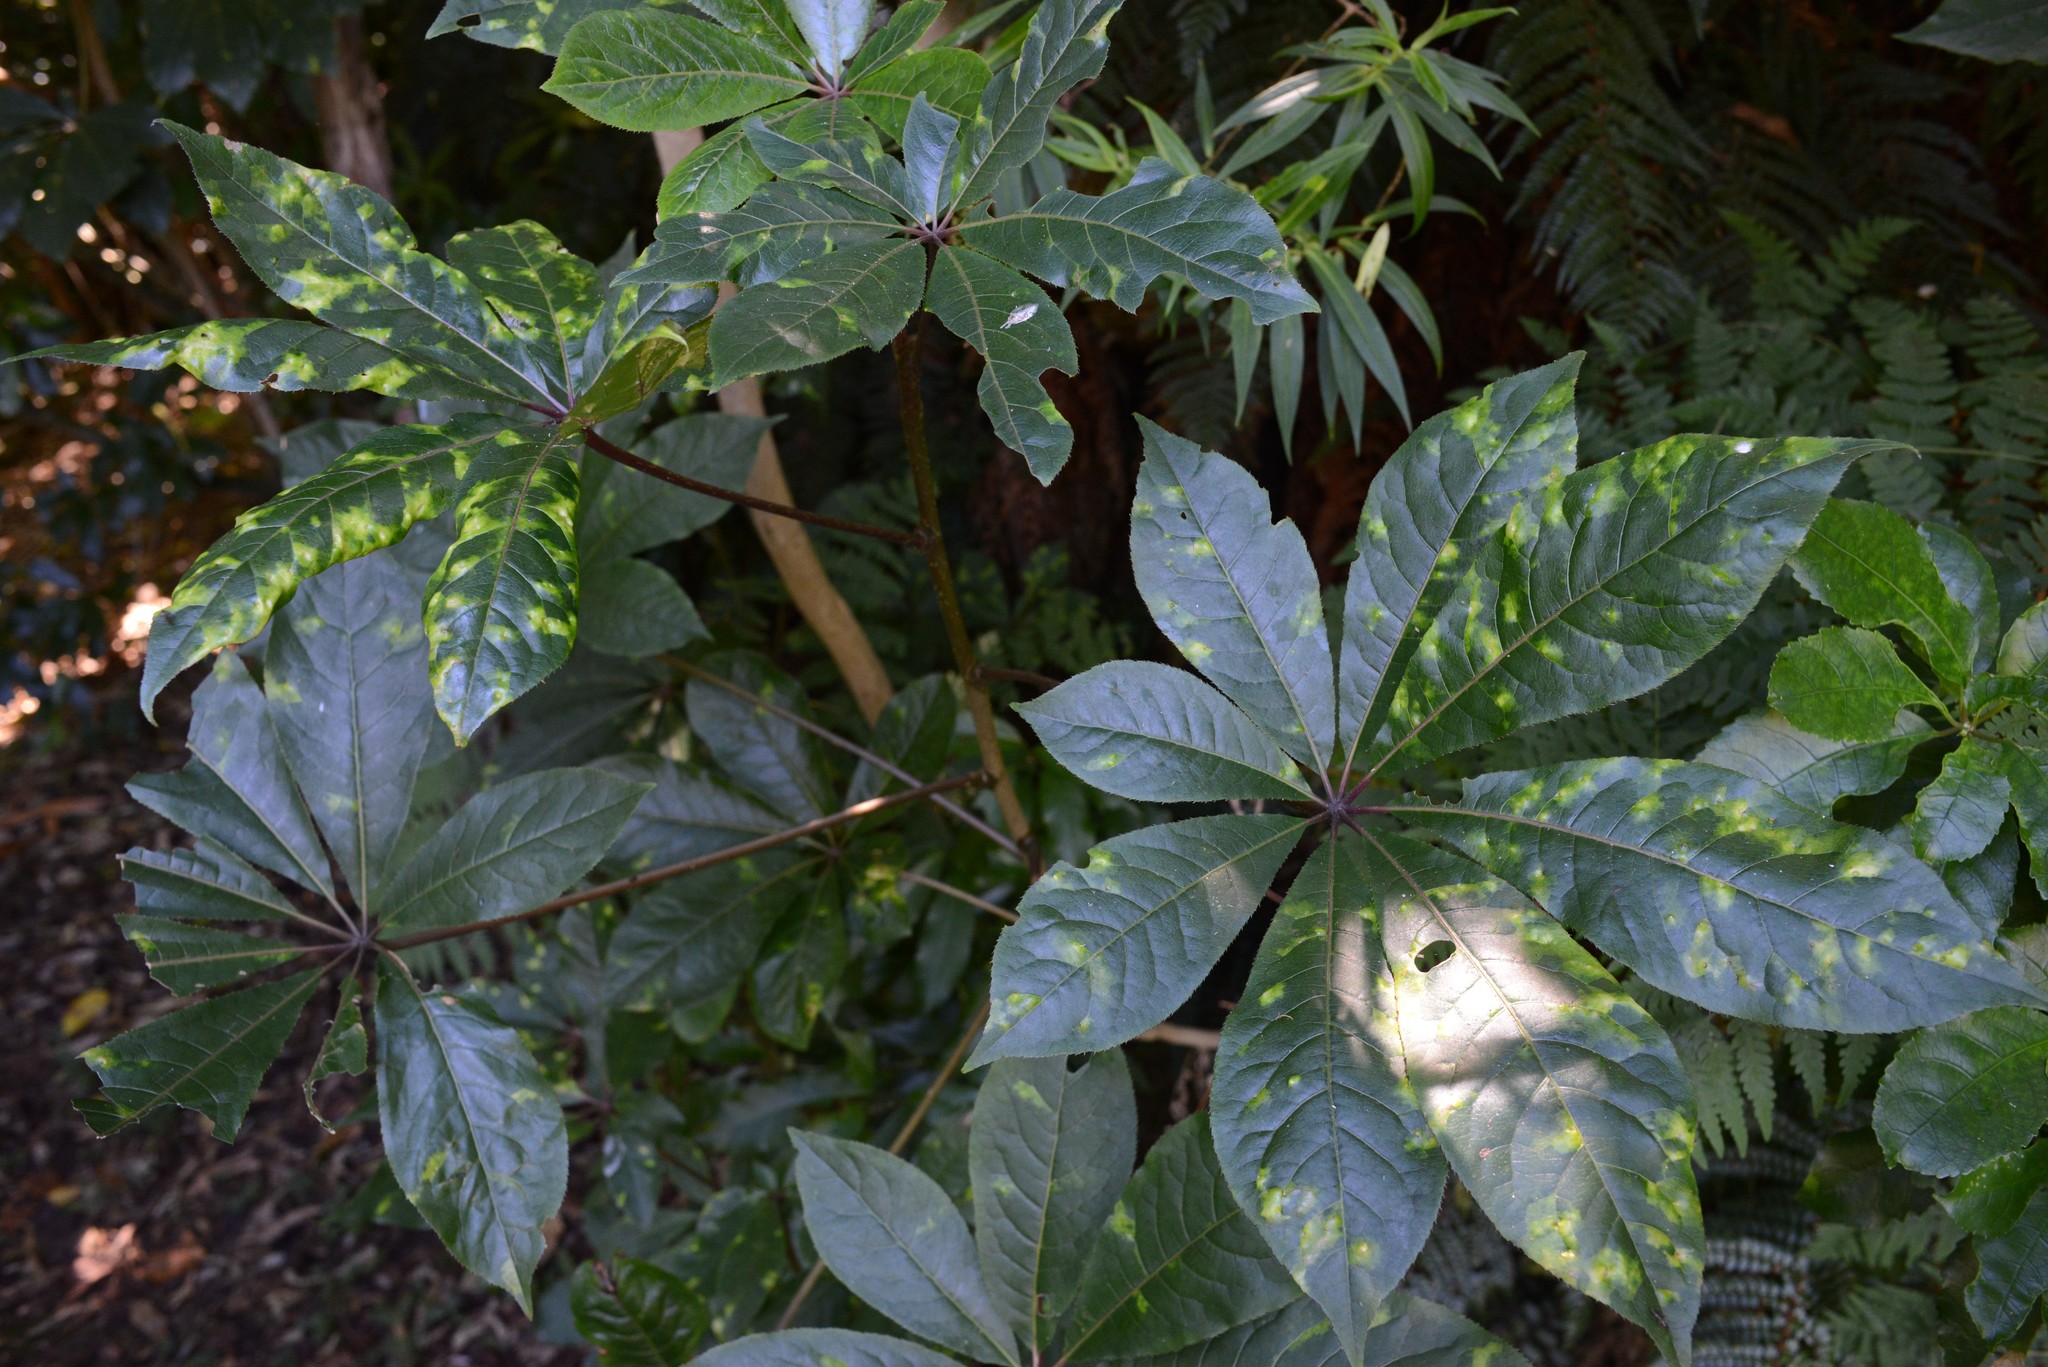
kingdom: Plantae
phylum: Tracheophyta
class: Magnoliopsida
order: Apiales
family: Araliaceae
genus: Schefflera
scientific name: Schefflera digitata
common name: Pate
